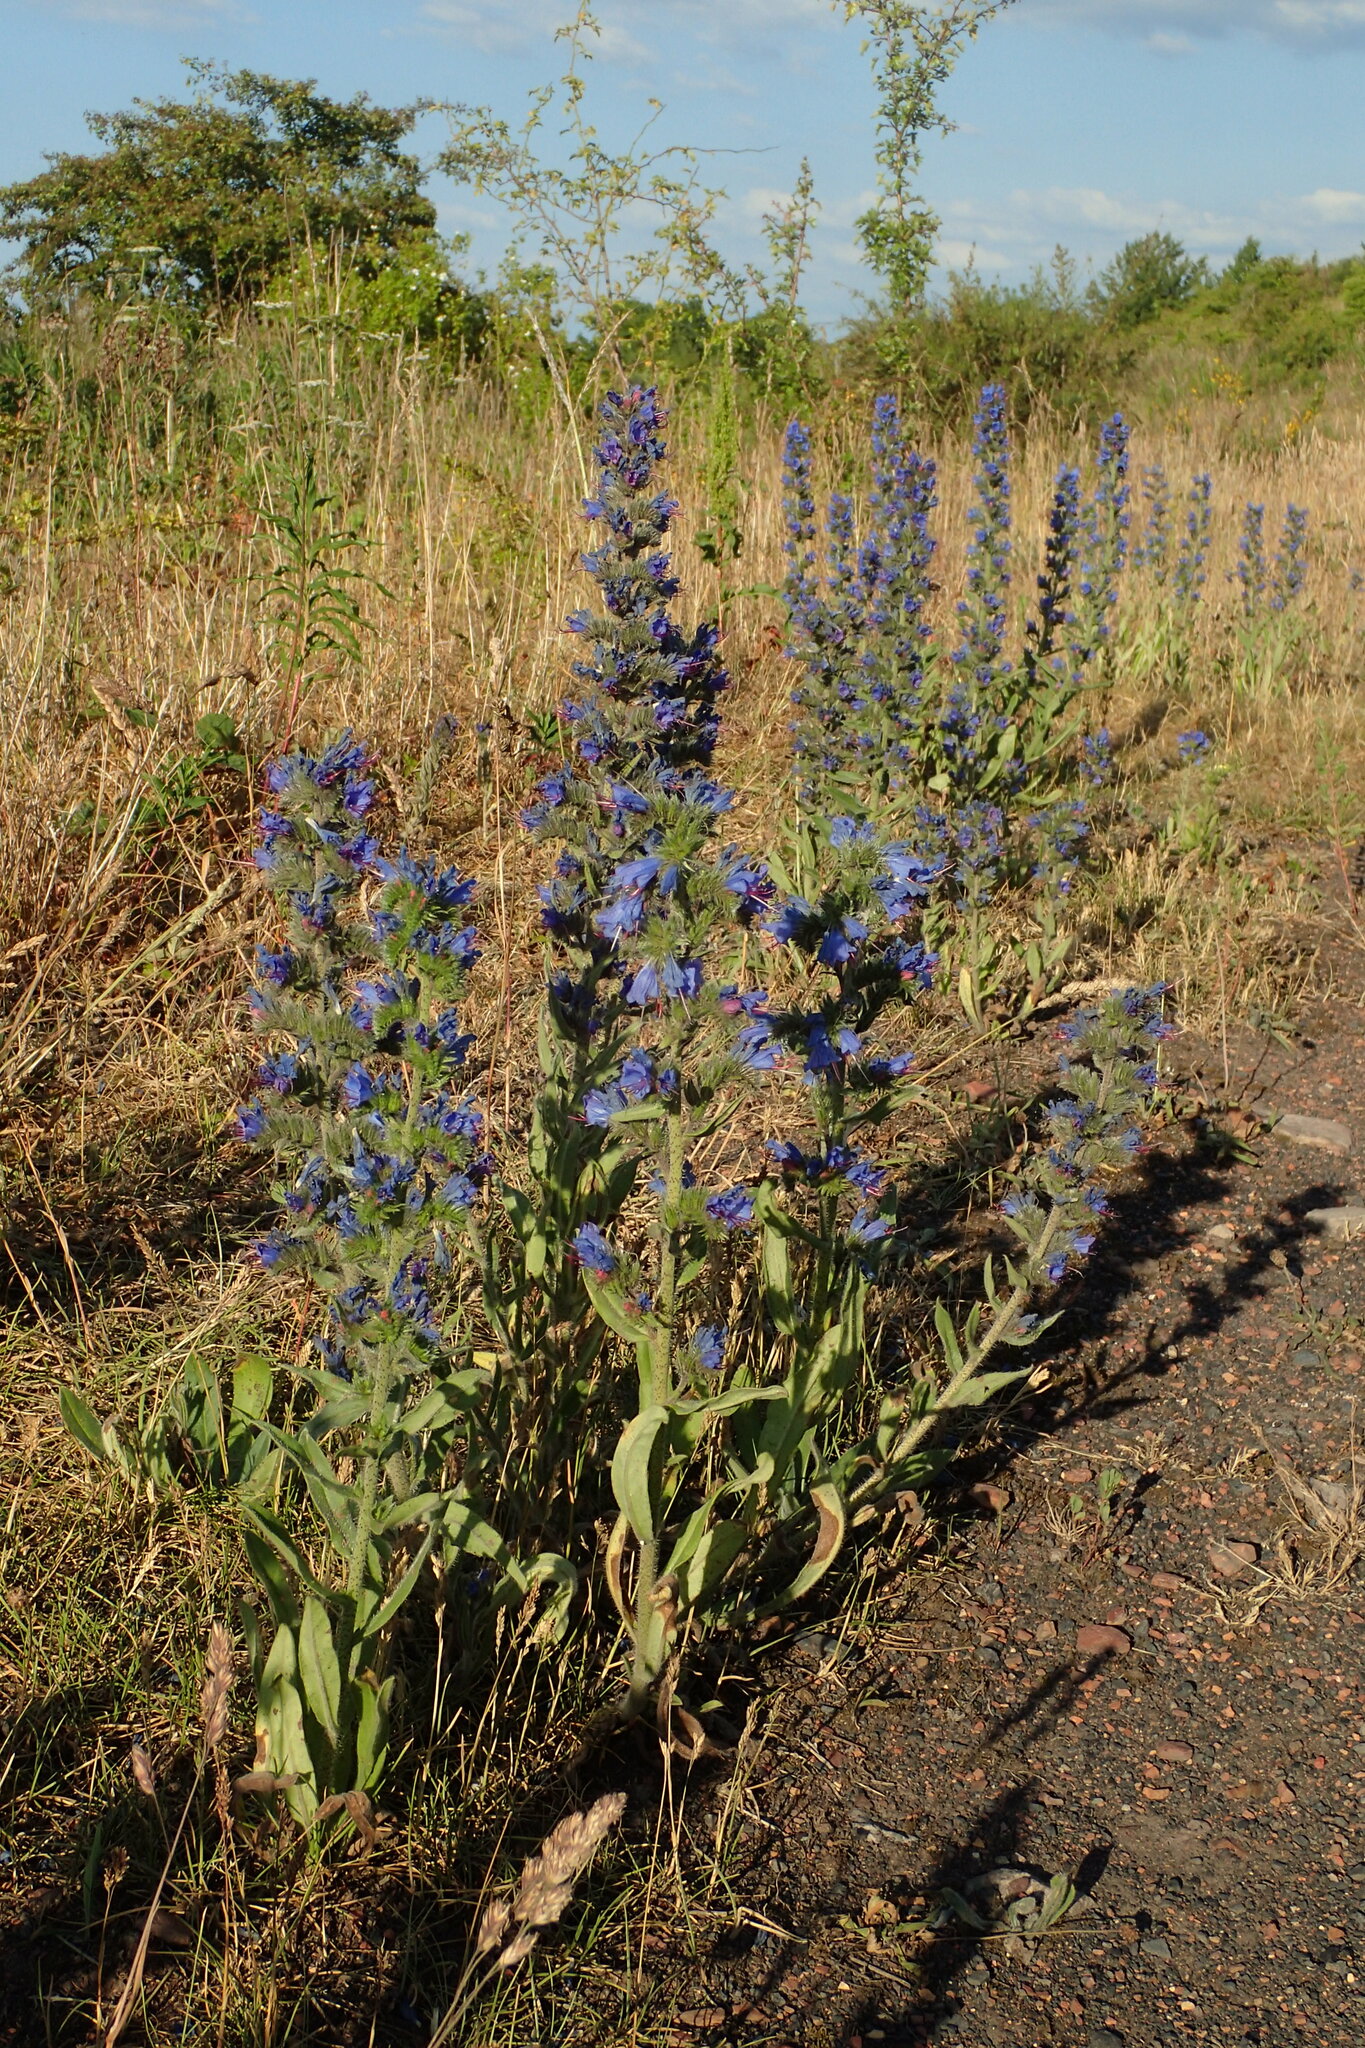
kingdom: Plantae
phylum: Tracheophyta
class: Magnoliopsida
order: Boraginales
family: Boraginaceae
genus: Echium
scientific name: Echium vulgare
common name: Common viper's bugloss
